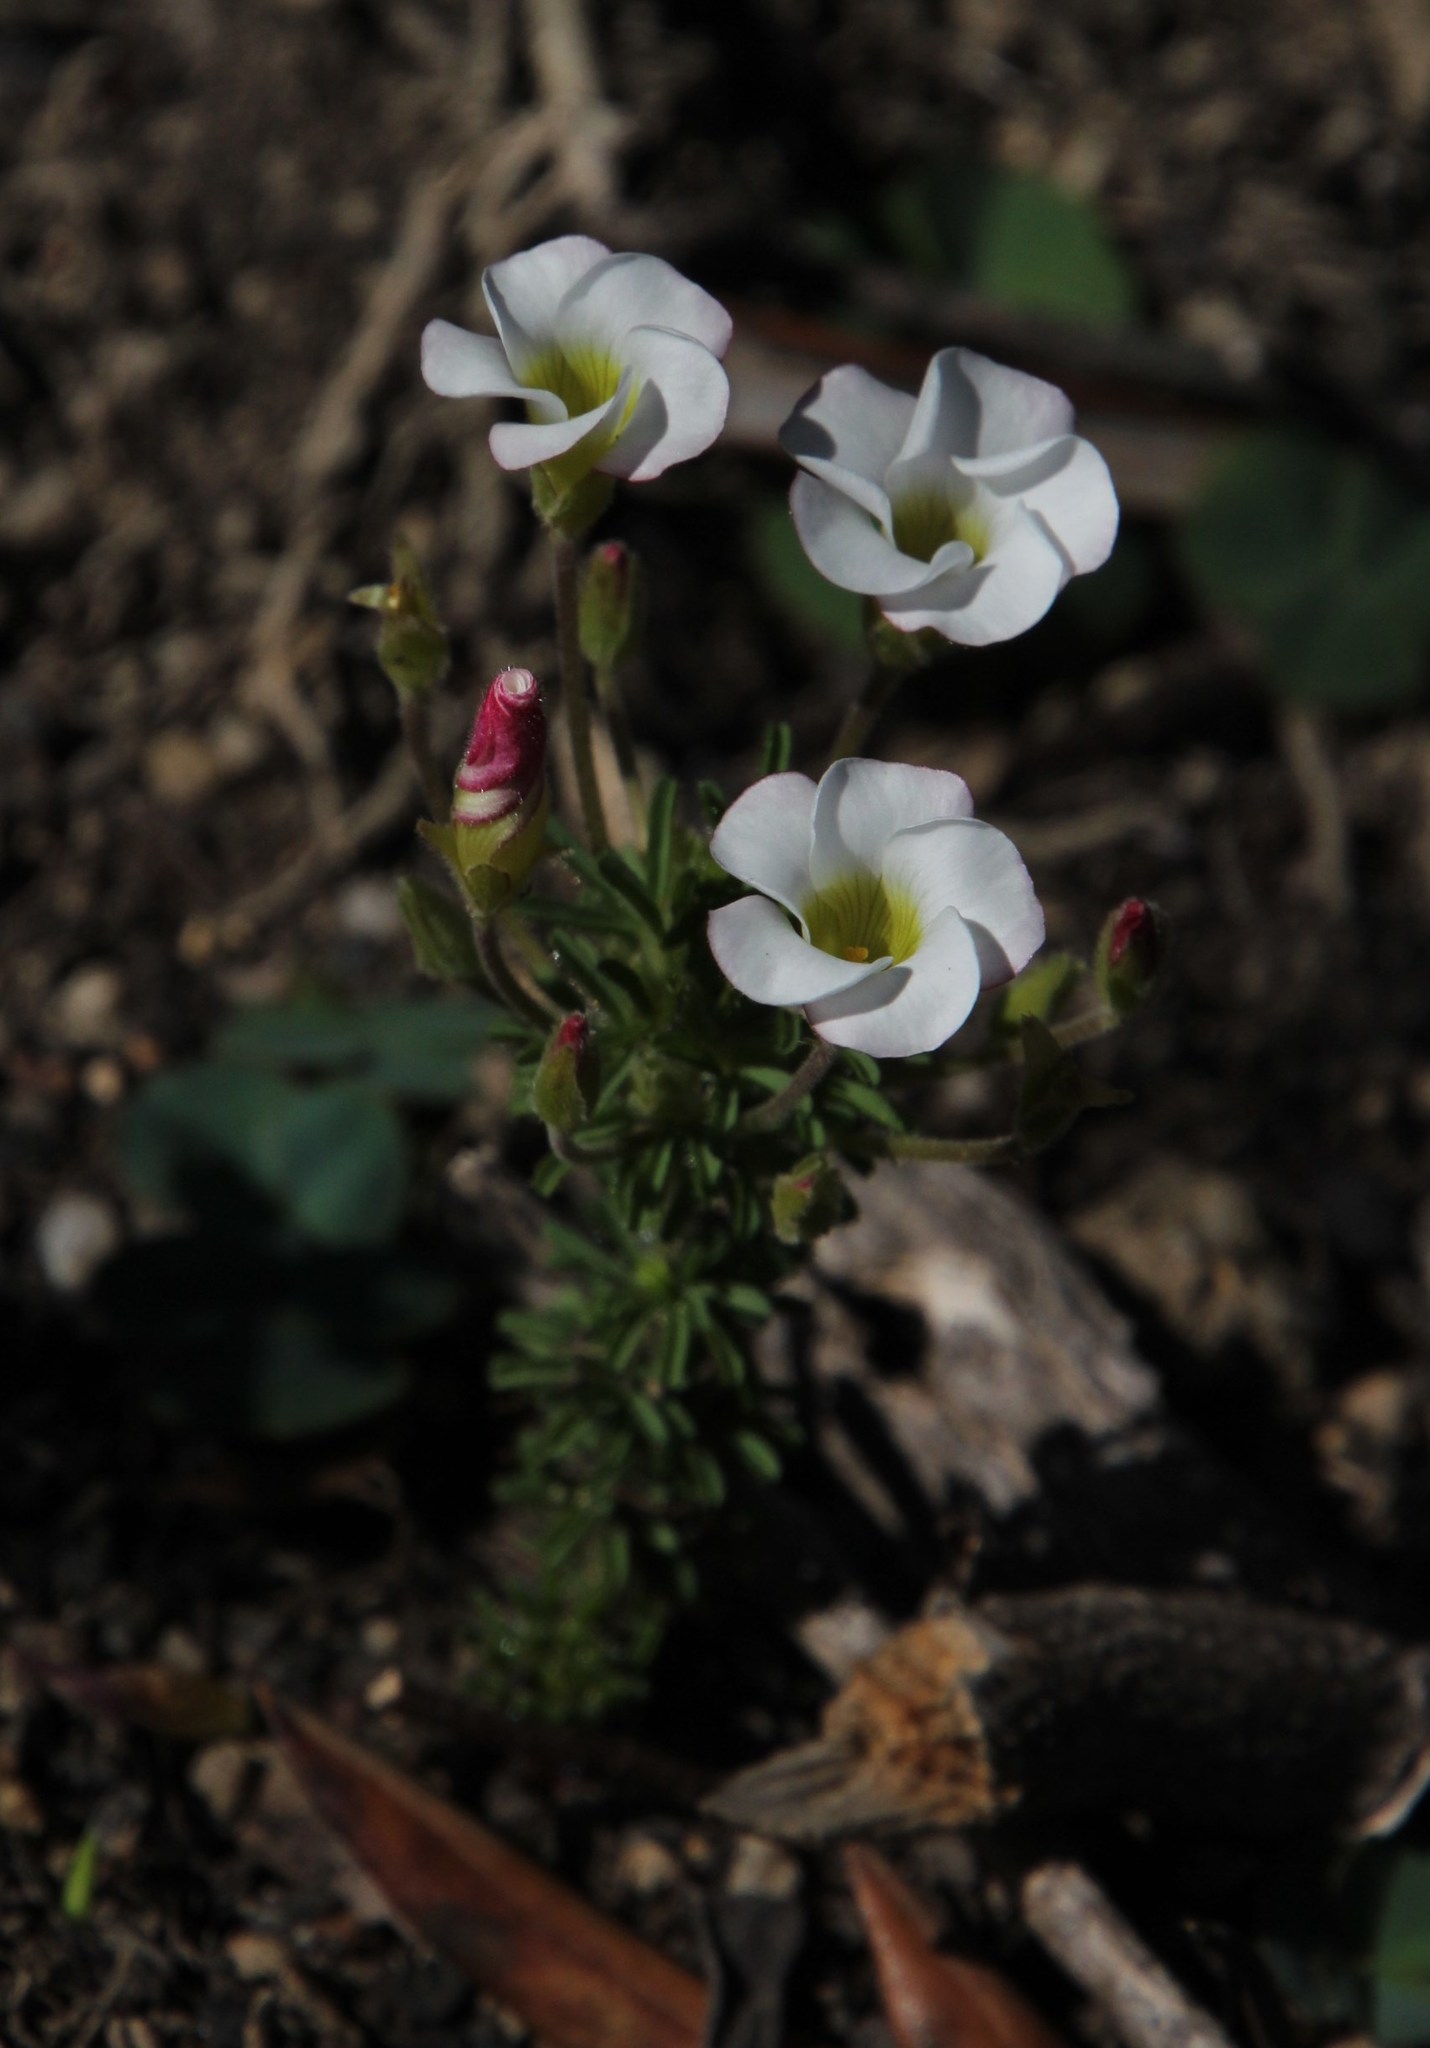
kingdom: Plantae
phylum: Tracheophyta
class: Magnoliopsida
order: Oxalidales
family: Oxalidaceae
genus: Oxalis
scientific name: Oxalis tenuifolia
